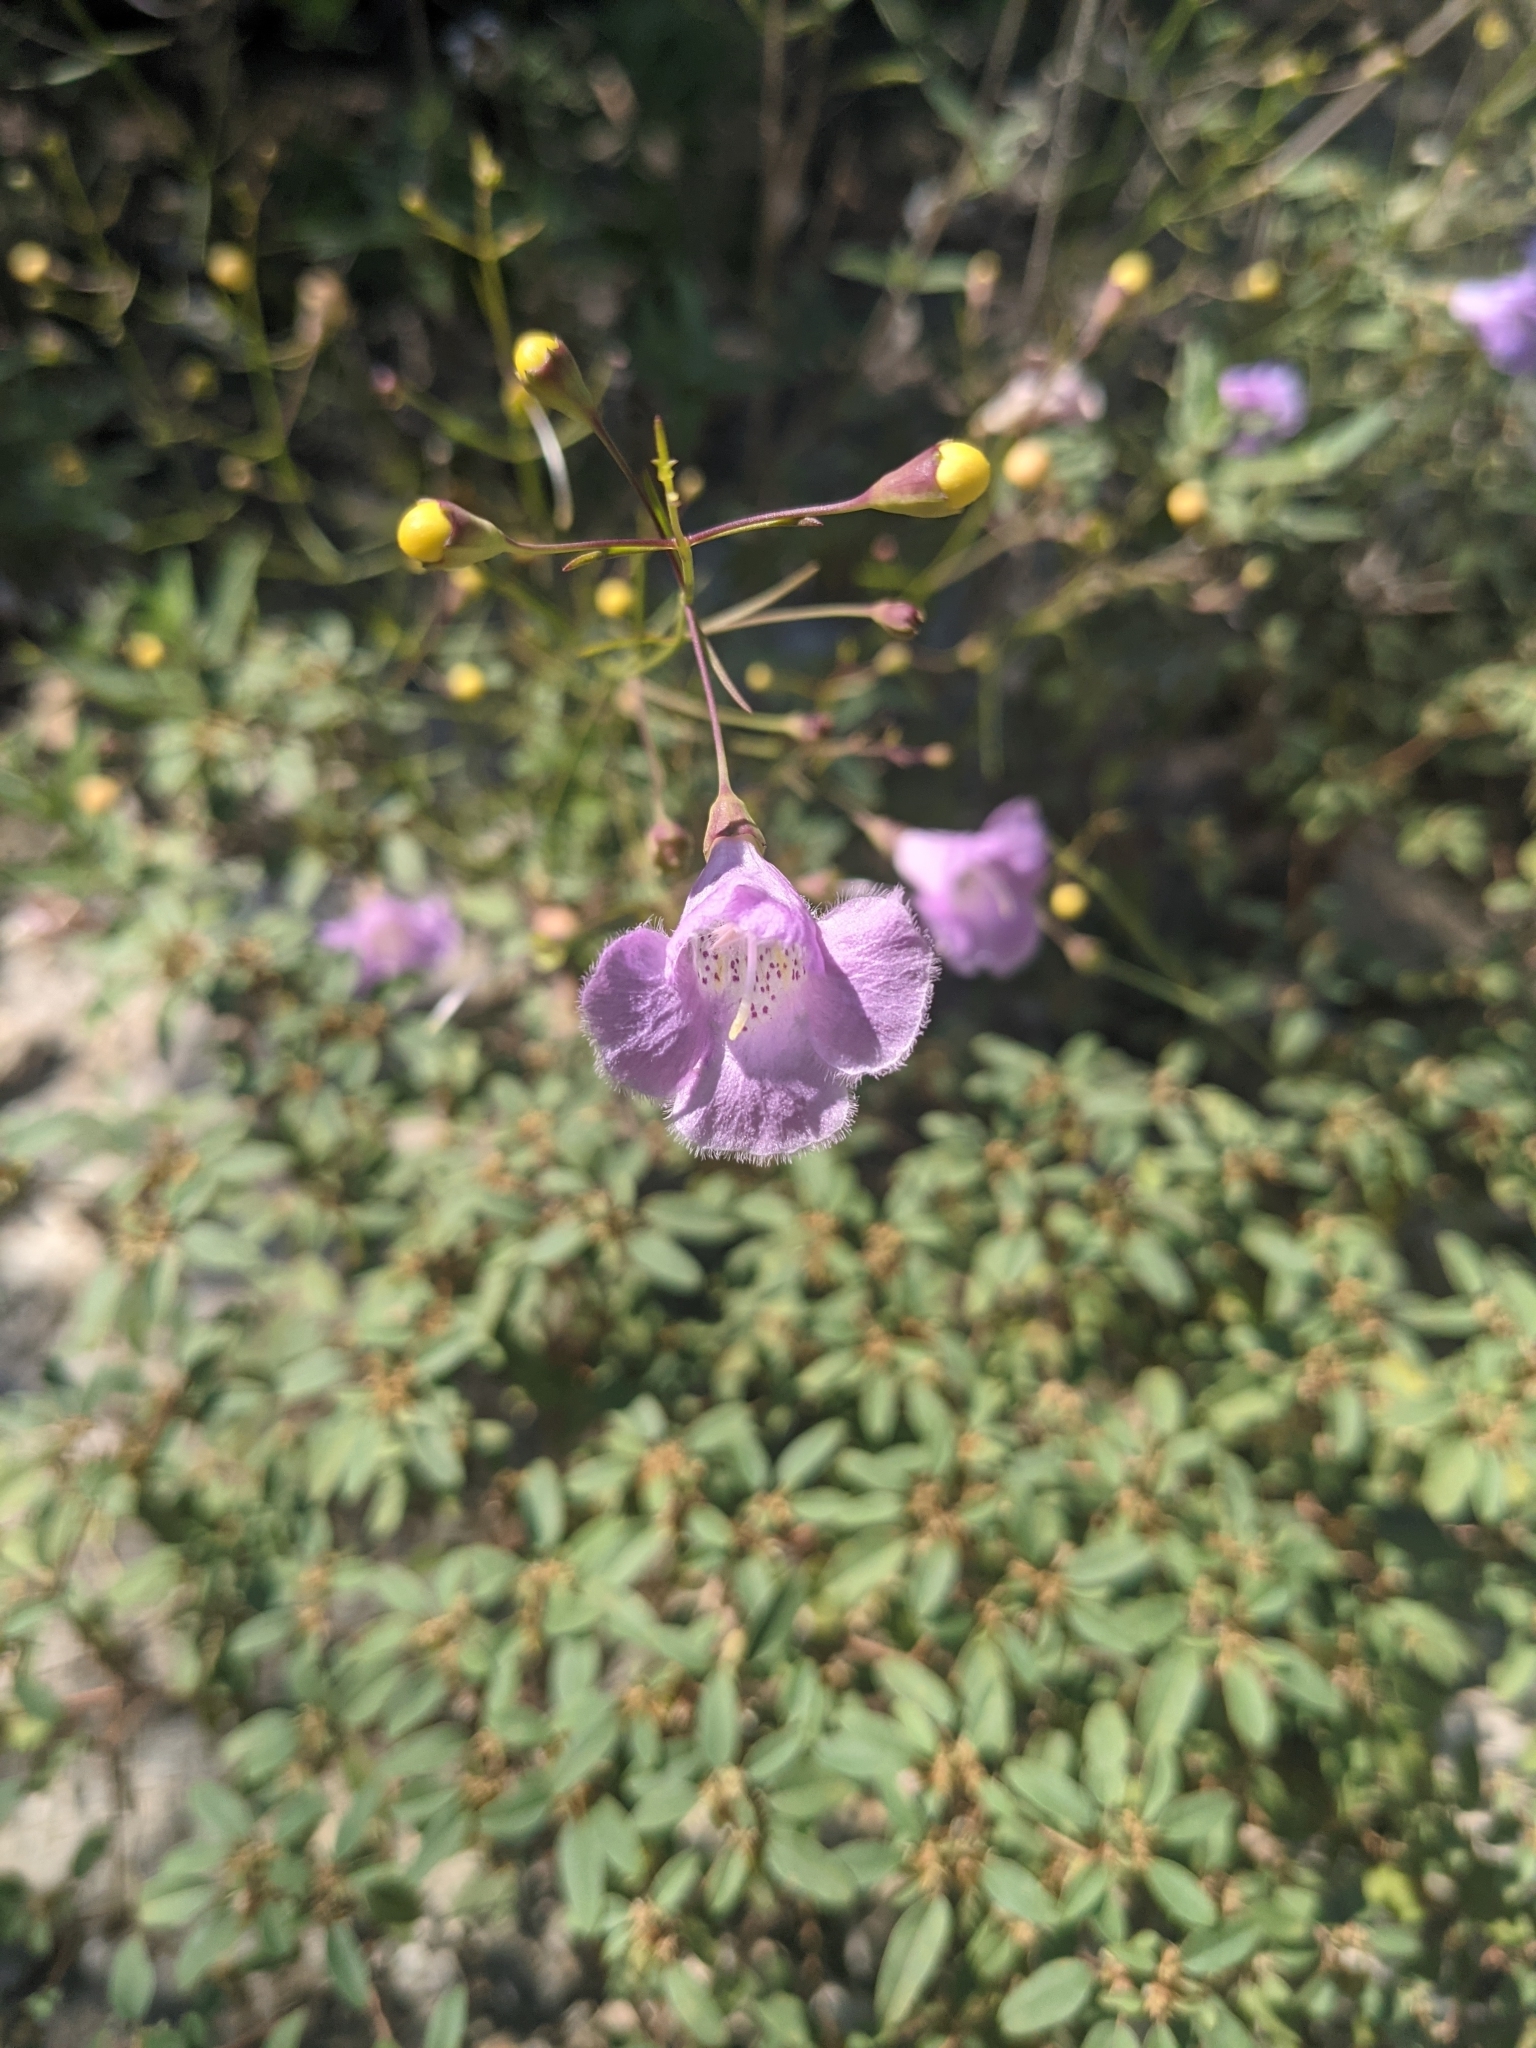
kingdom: Plantae
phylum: Tracheophyta
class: Magnoliopsida
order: Lamiales
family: Orobanchaceae
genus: Agalinis
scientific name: Agalinis edwardsiana
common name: Plateau-gerardia
